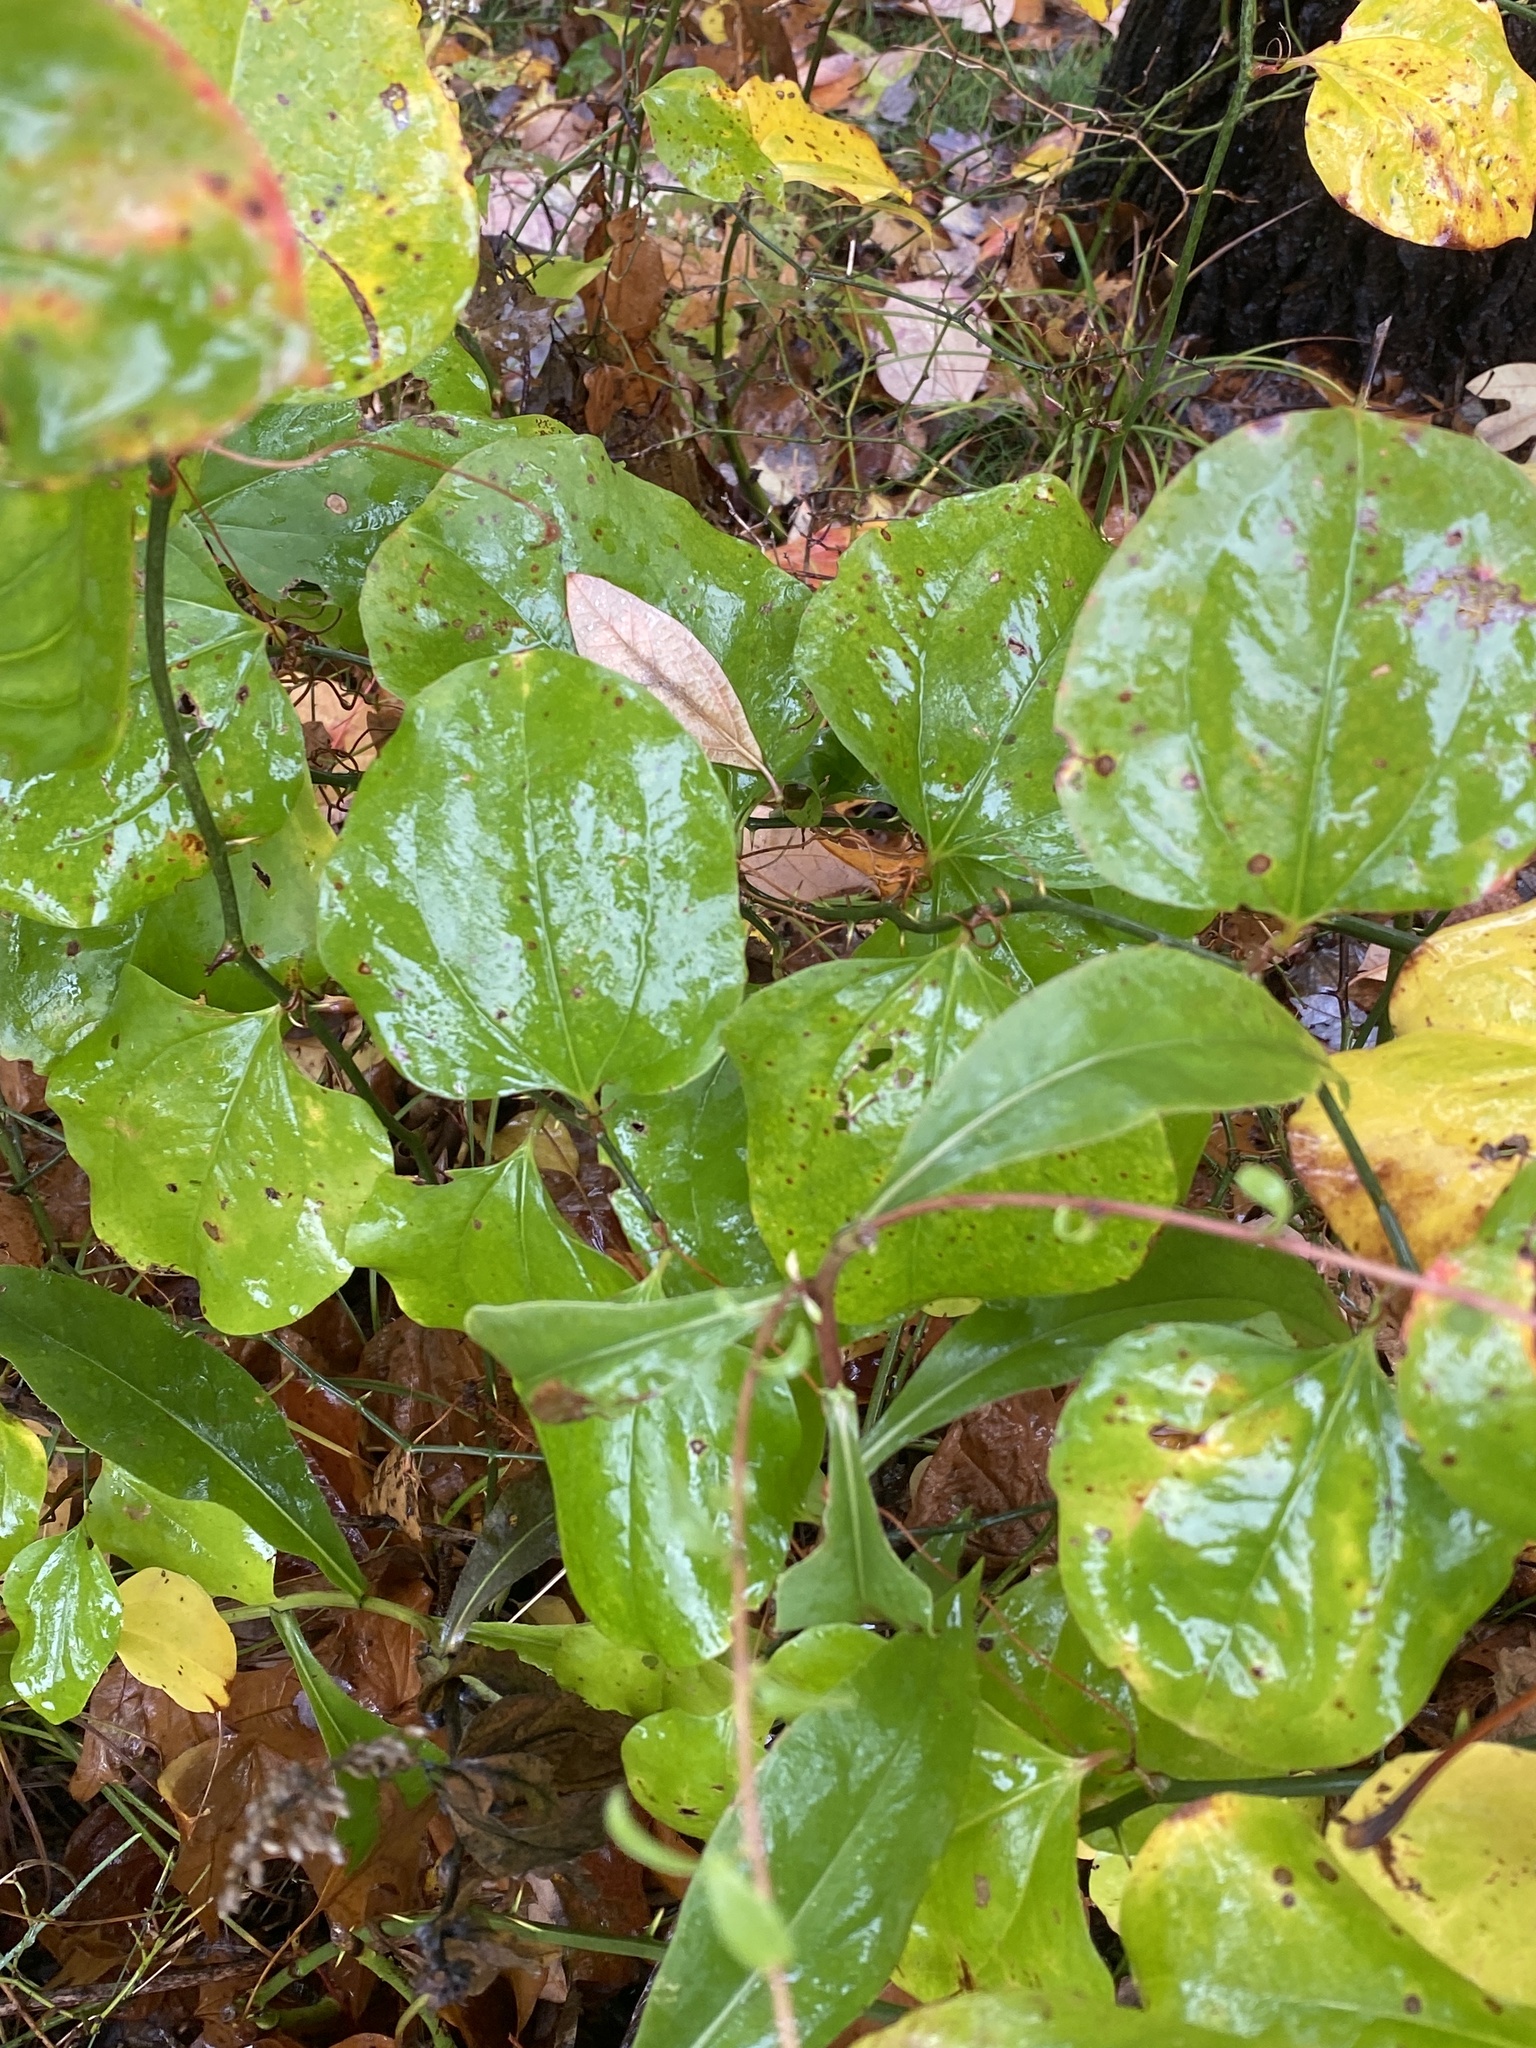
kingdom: Plantae
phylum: Tracheophyta
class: Liliopsida
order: Liliales
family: Smilacaceae
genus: Smilax
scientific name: Smilax rotundifolia
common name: Bullbriar
